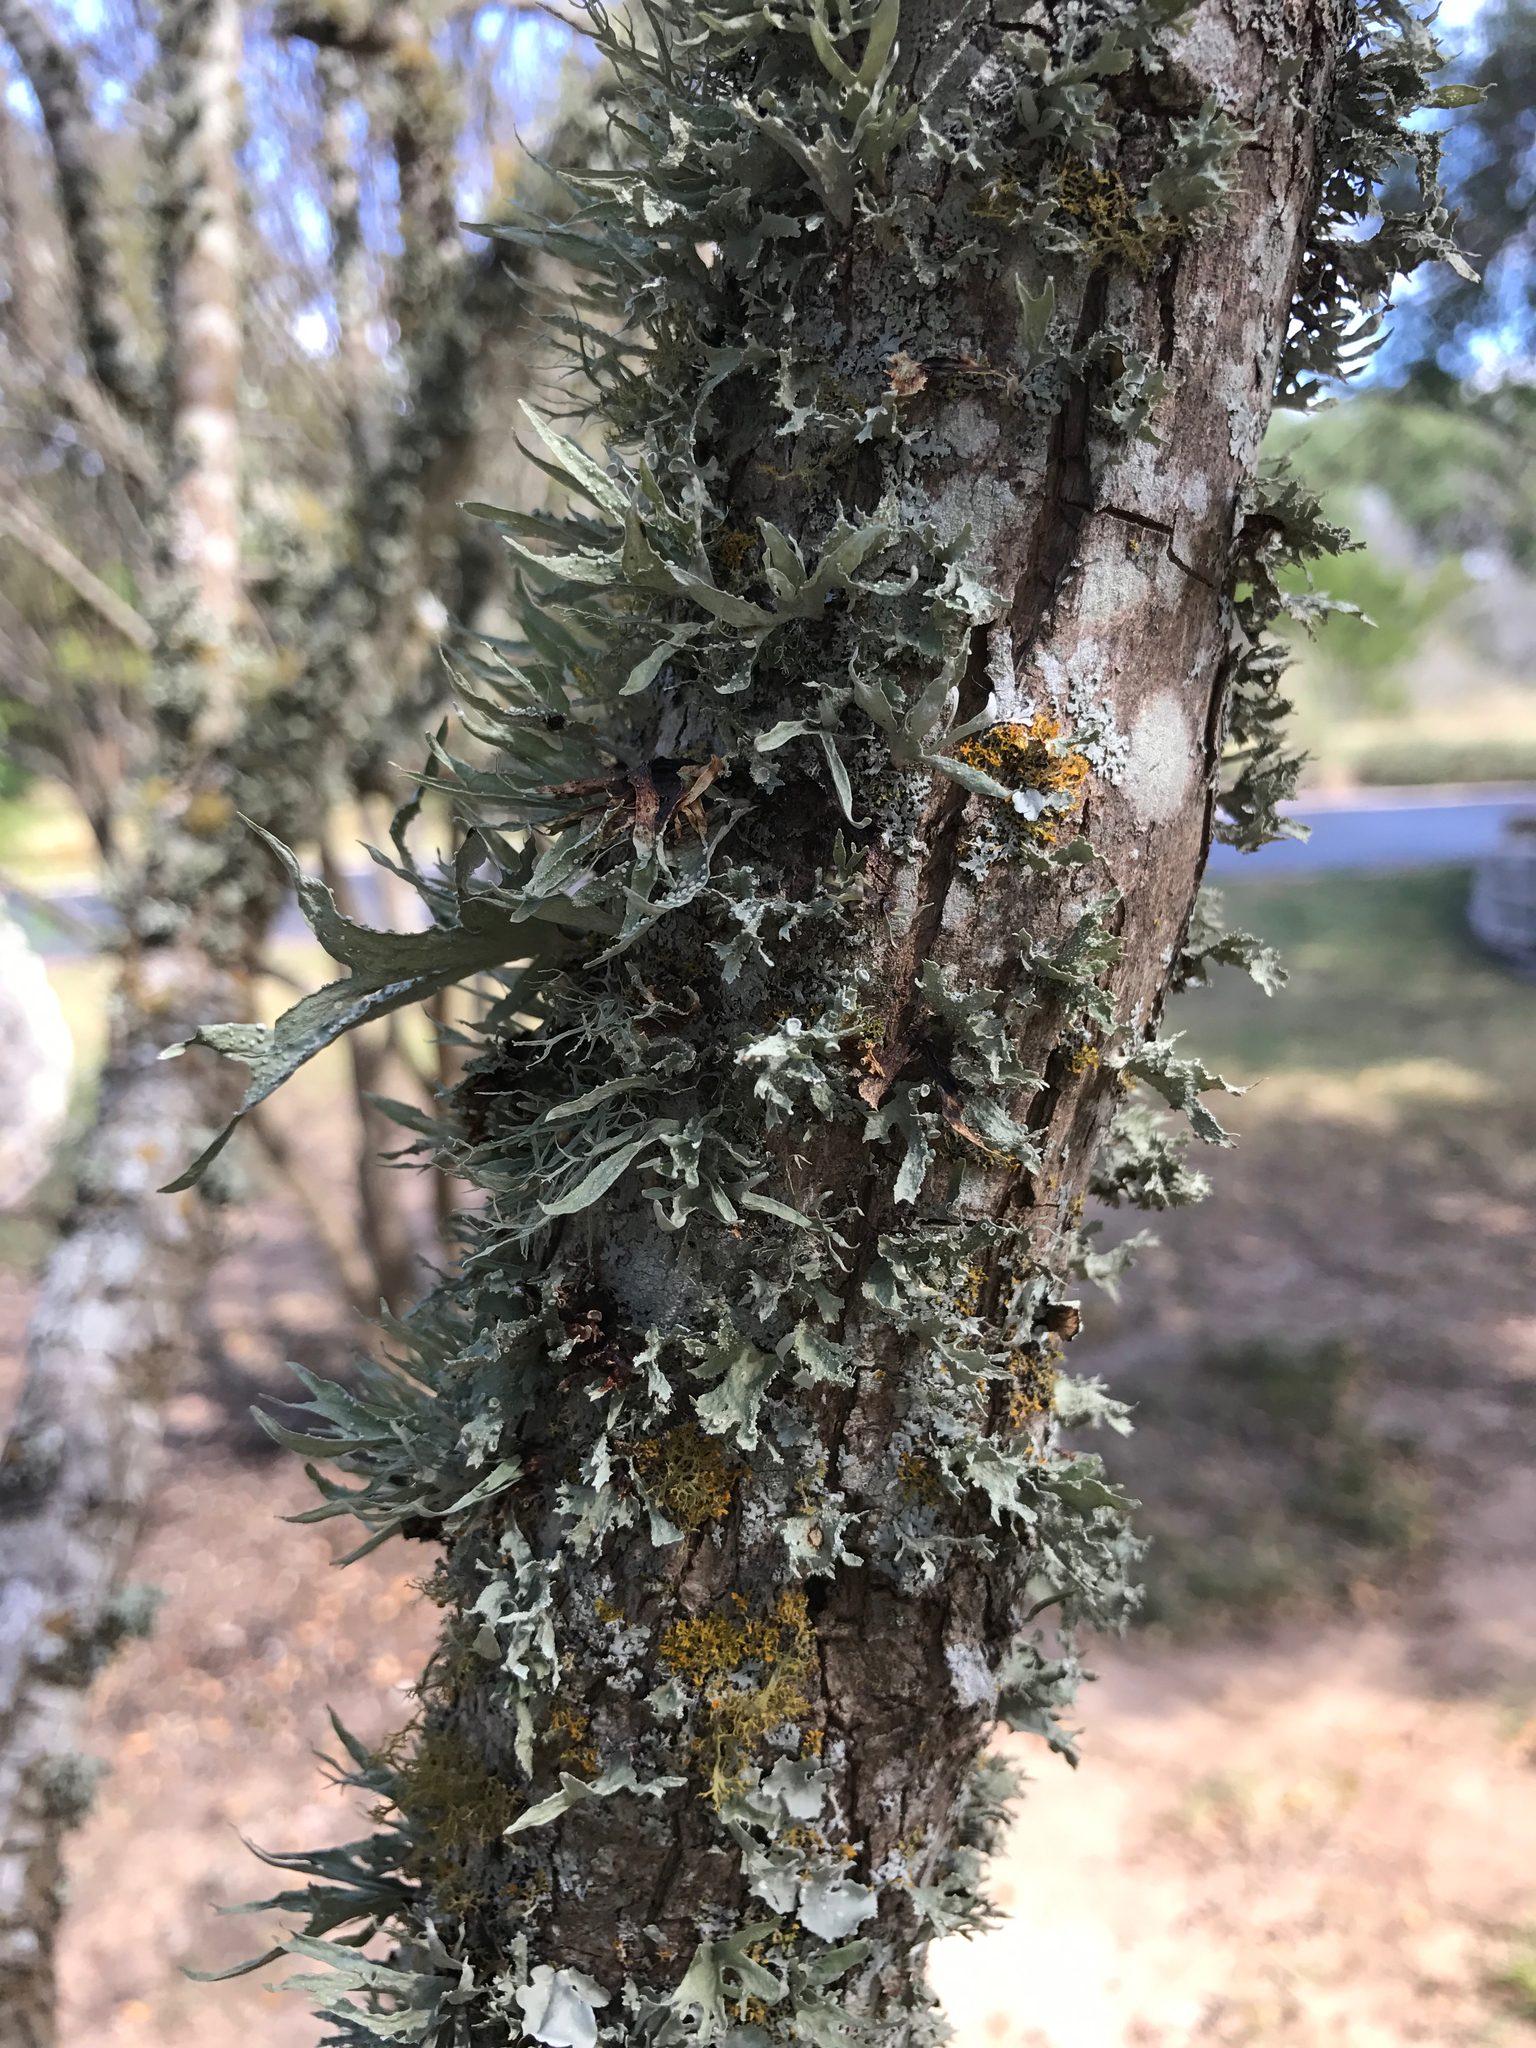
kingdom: Fungi
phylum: Ascomycota
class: Lecanoromycetes
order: Lecanorales
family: Ramalinaceae
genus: Ramalina
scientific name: Ramalina celastri
